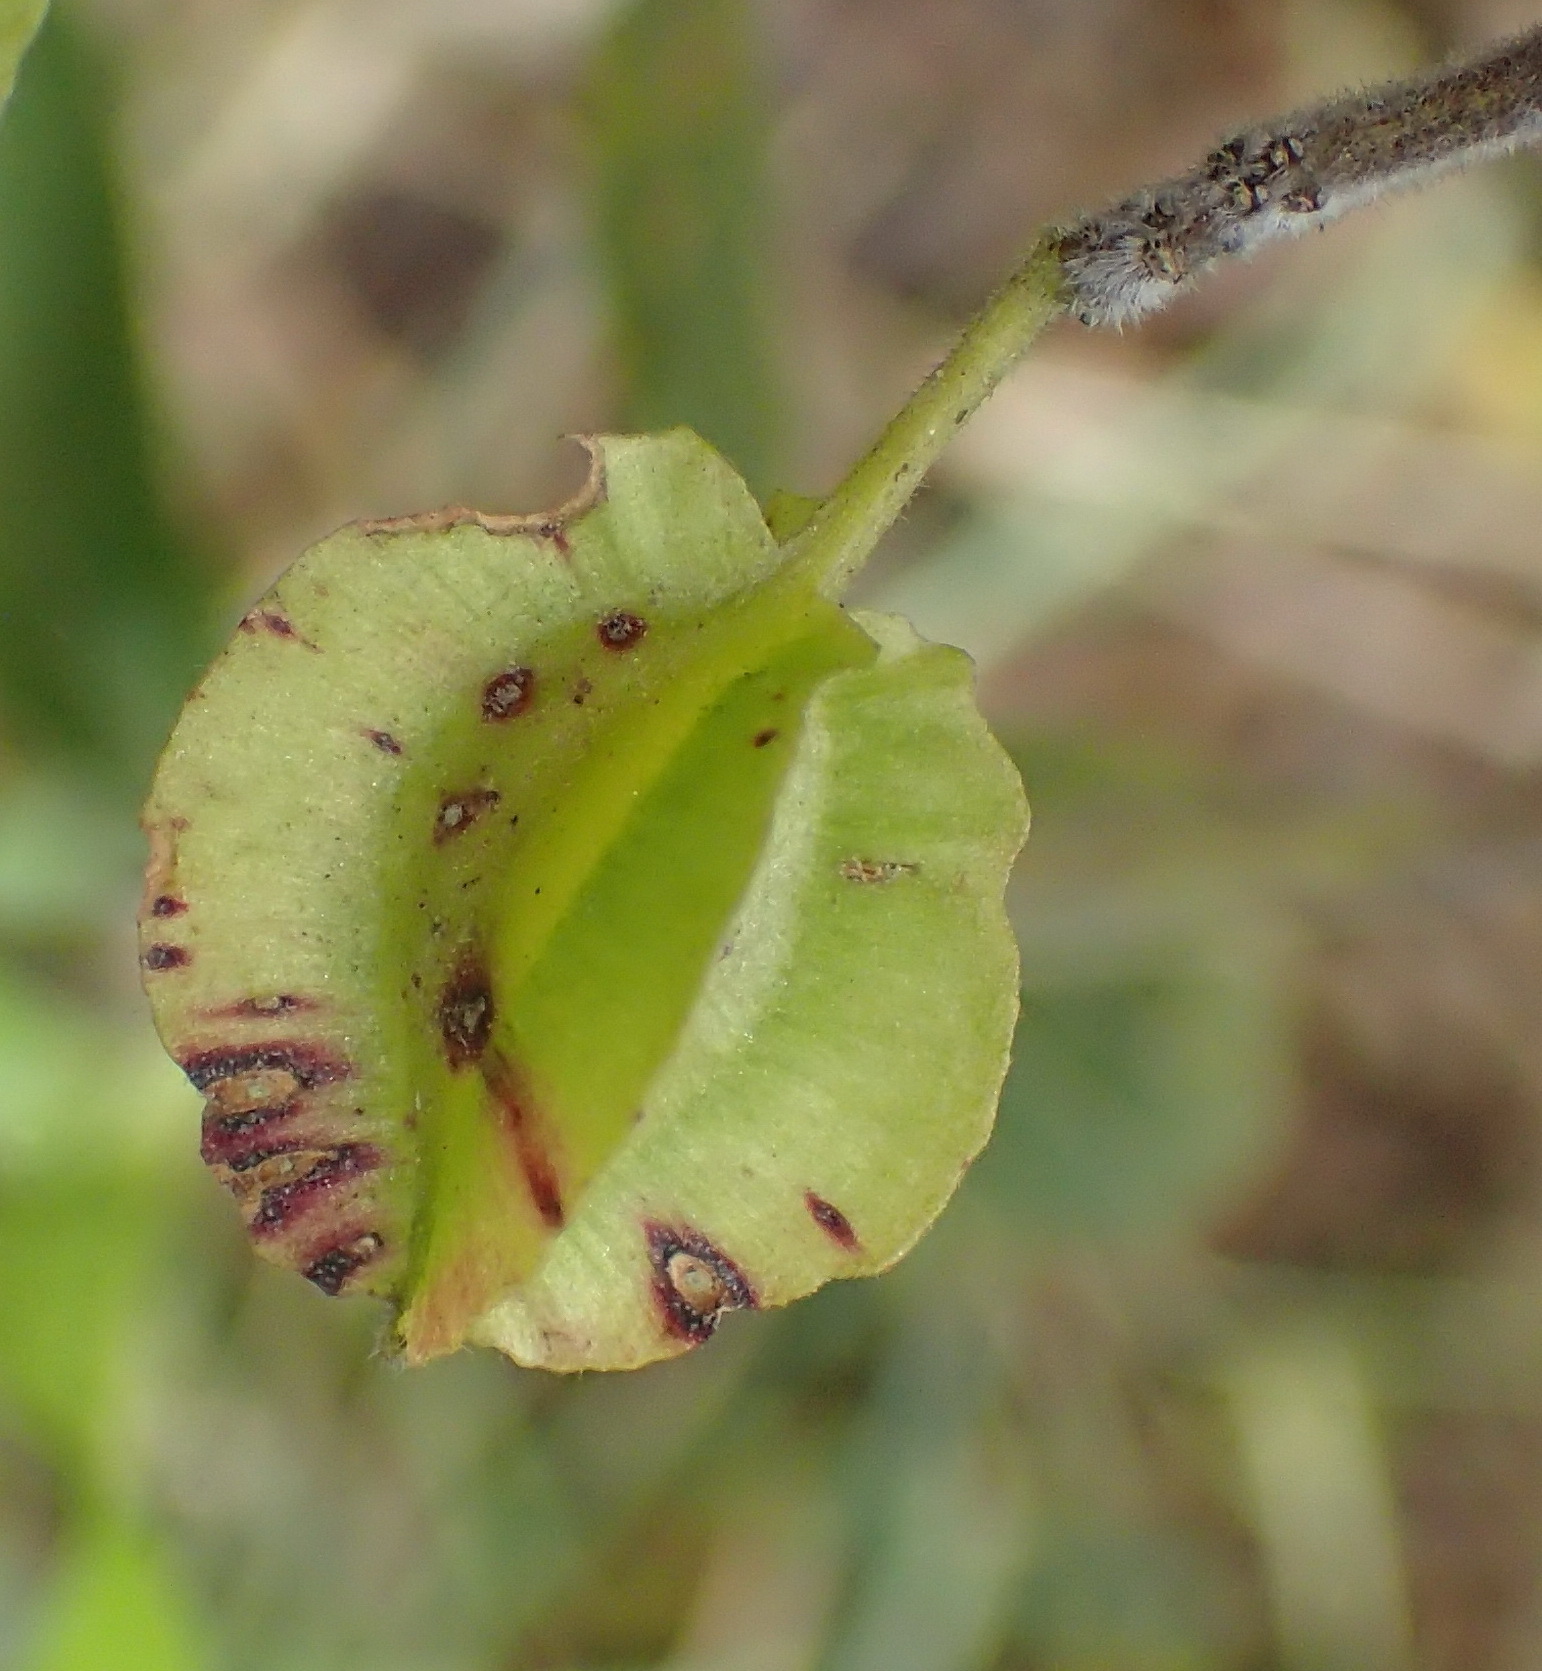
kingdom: Plantae
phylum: Tracheophyta
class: Magnoliopsida
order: Myrtales
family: Combretaceae
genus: Combretum
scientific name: Combretum erythrophyllum
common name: Bush-willow
